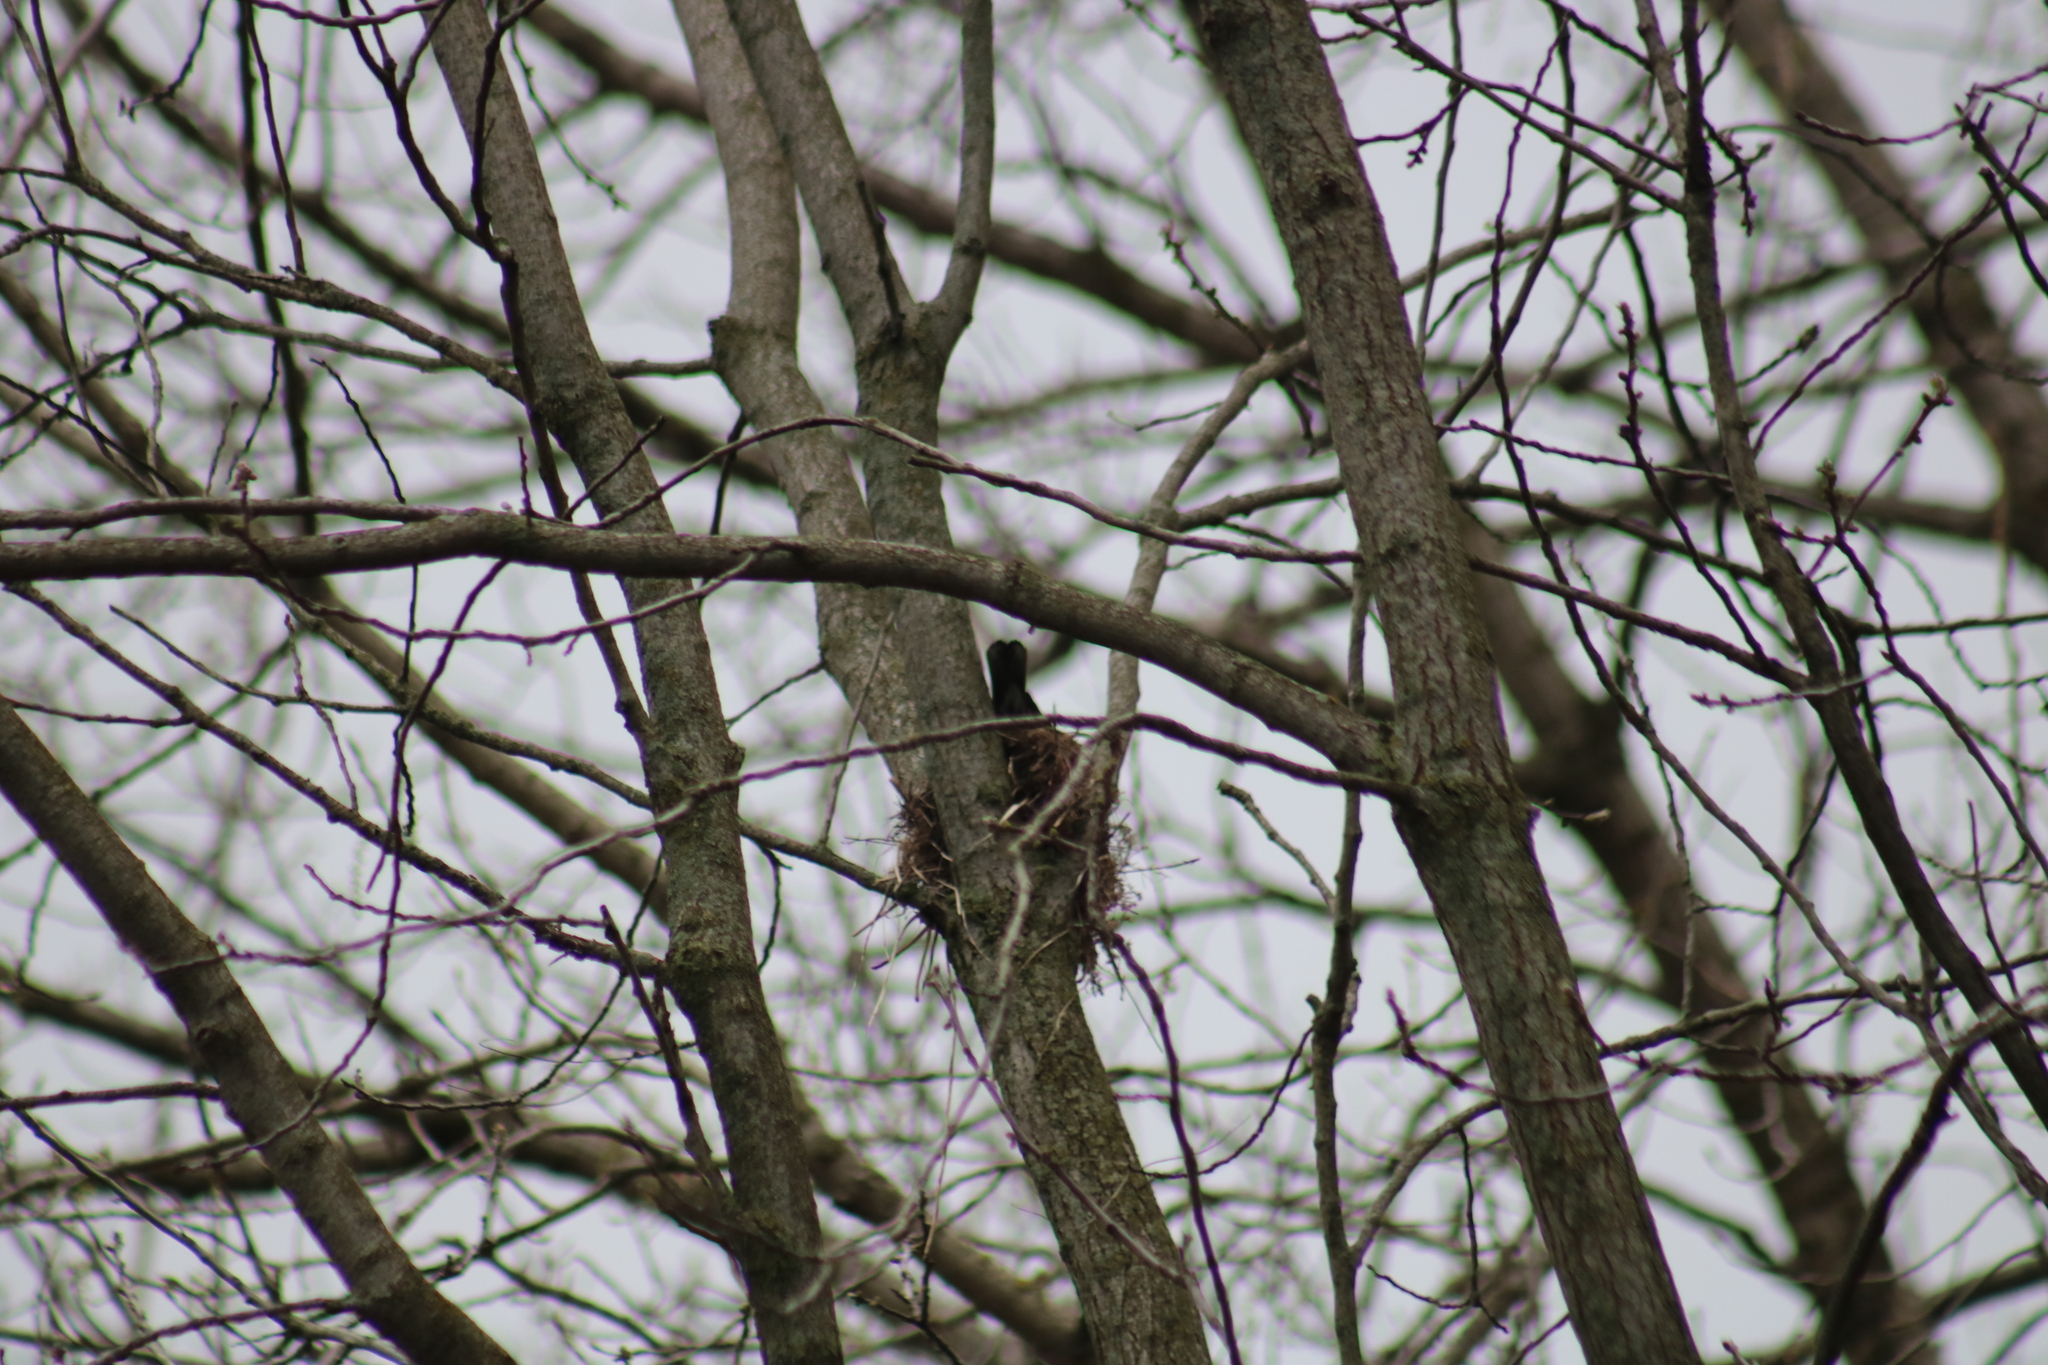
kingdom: Animalia
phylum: Chordata
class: Aves
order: Passeriformes
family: Turdidae
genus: Turdus
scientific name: Turdus migratorius
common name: American robin
